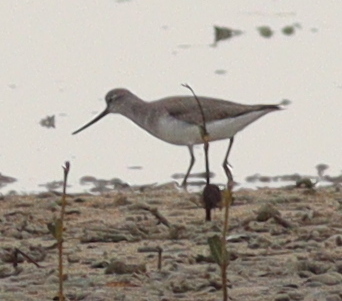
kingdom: Animalia
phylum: Chordata
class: Aves
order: Charadriiformes
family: Scolopacidae
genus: Xenus
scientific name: Xenus cinereus
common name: Terek sandpiper
